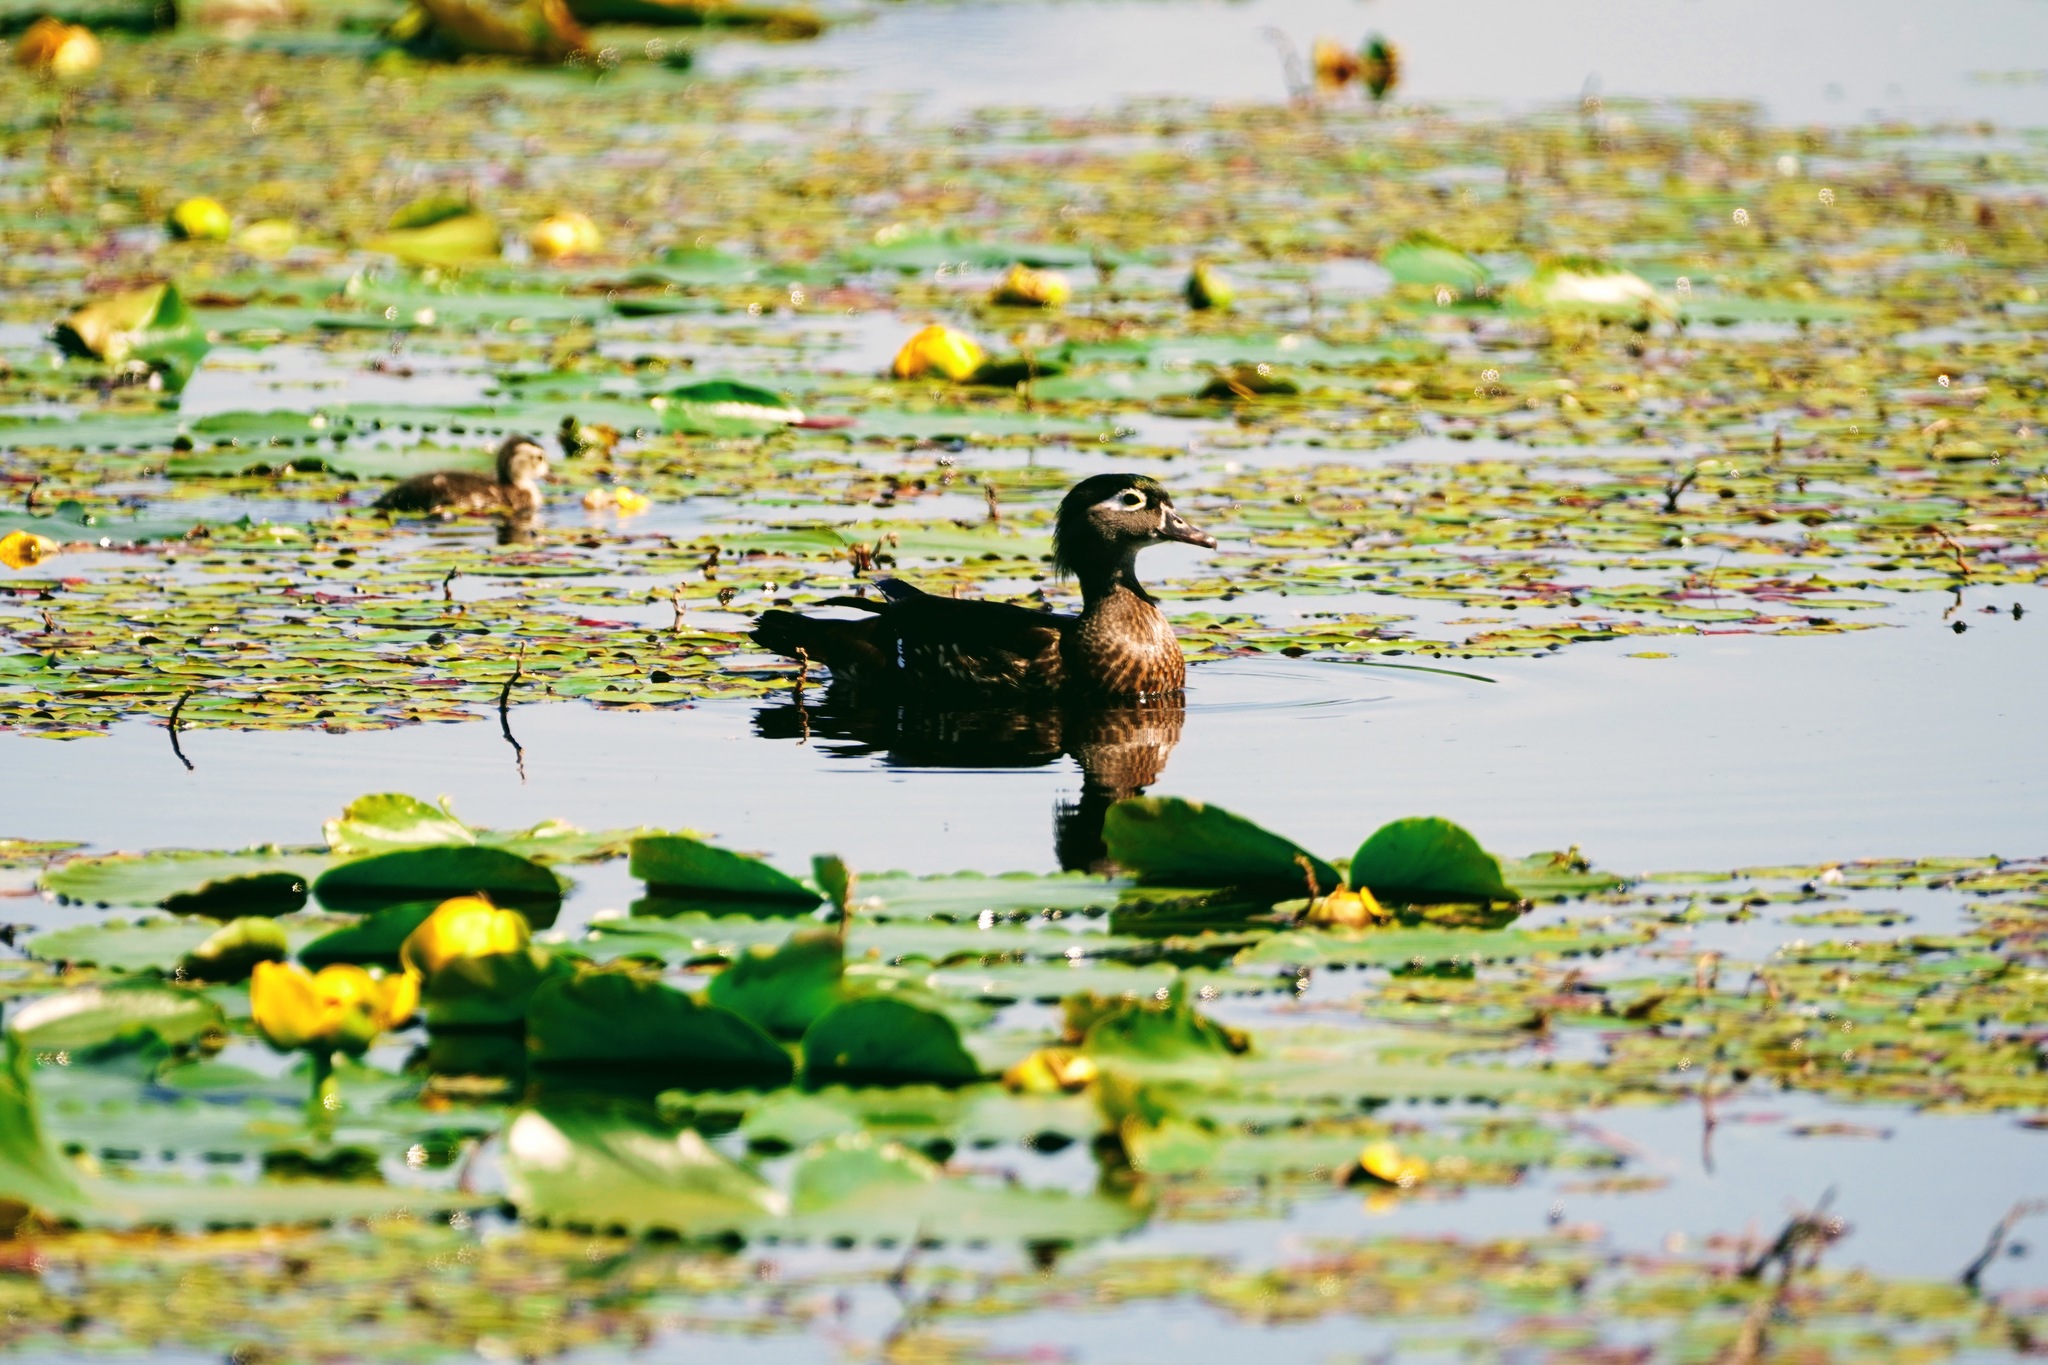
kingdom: Animalia
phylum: Chordata
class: Aves
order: Anseriformes
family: Anatidae
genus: Aix
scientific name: Aix sponsa
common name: Wood duck
